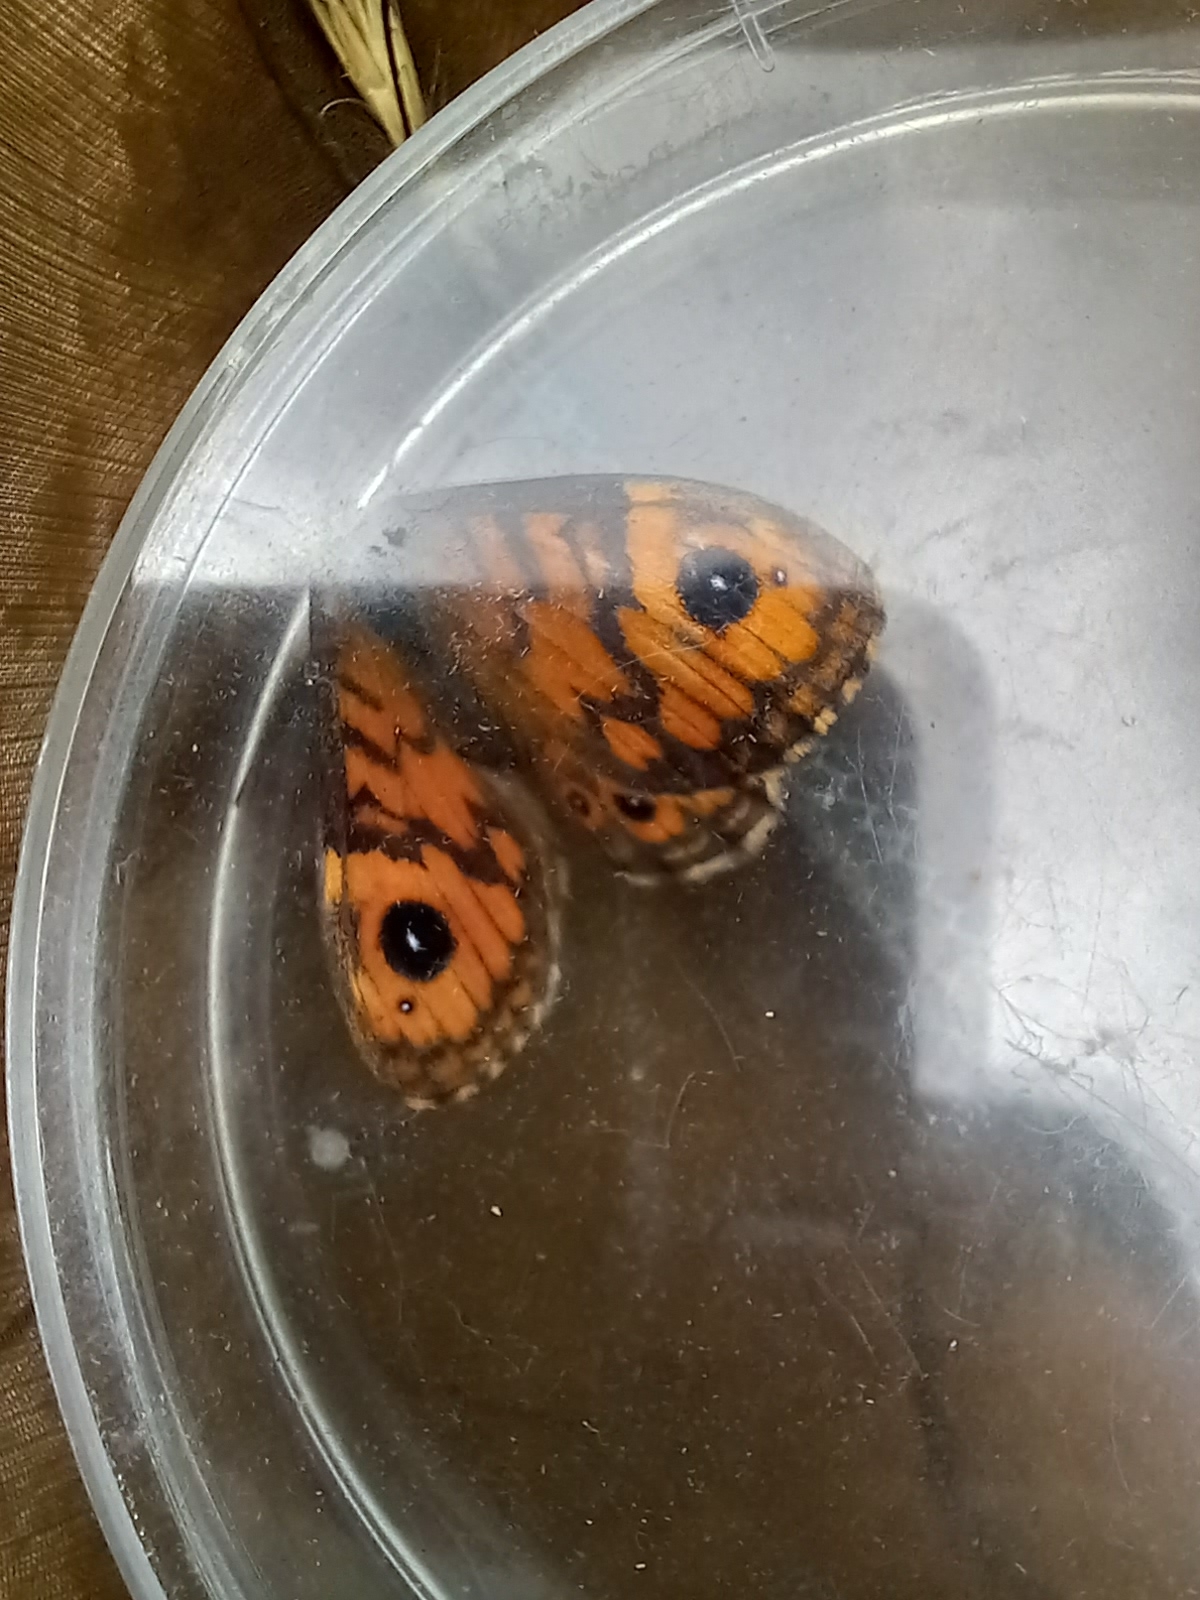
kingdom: Animalia
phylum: Arthropoda
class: Insecta
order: Lepidoptera
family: Nymphalidae
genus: Pararge
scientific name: Pararge Lasiommata megera
